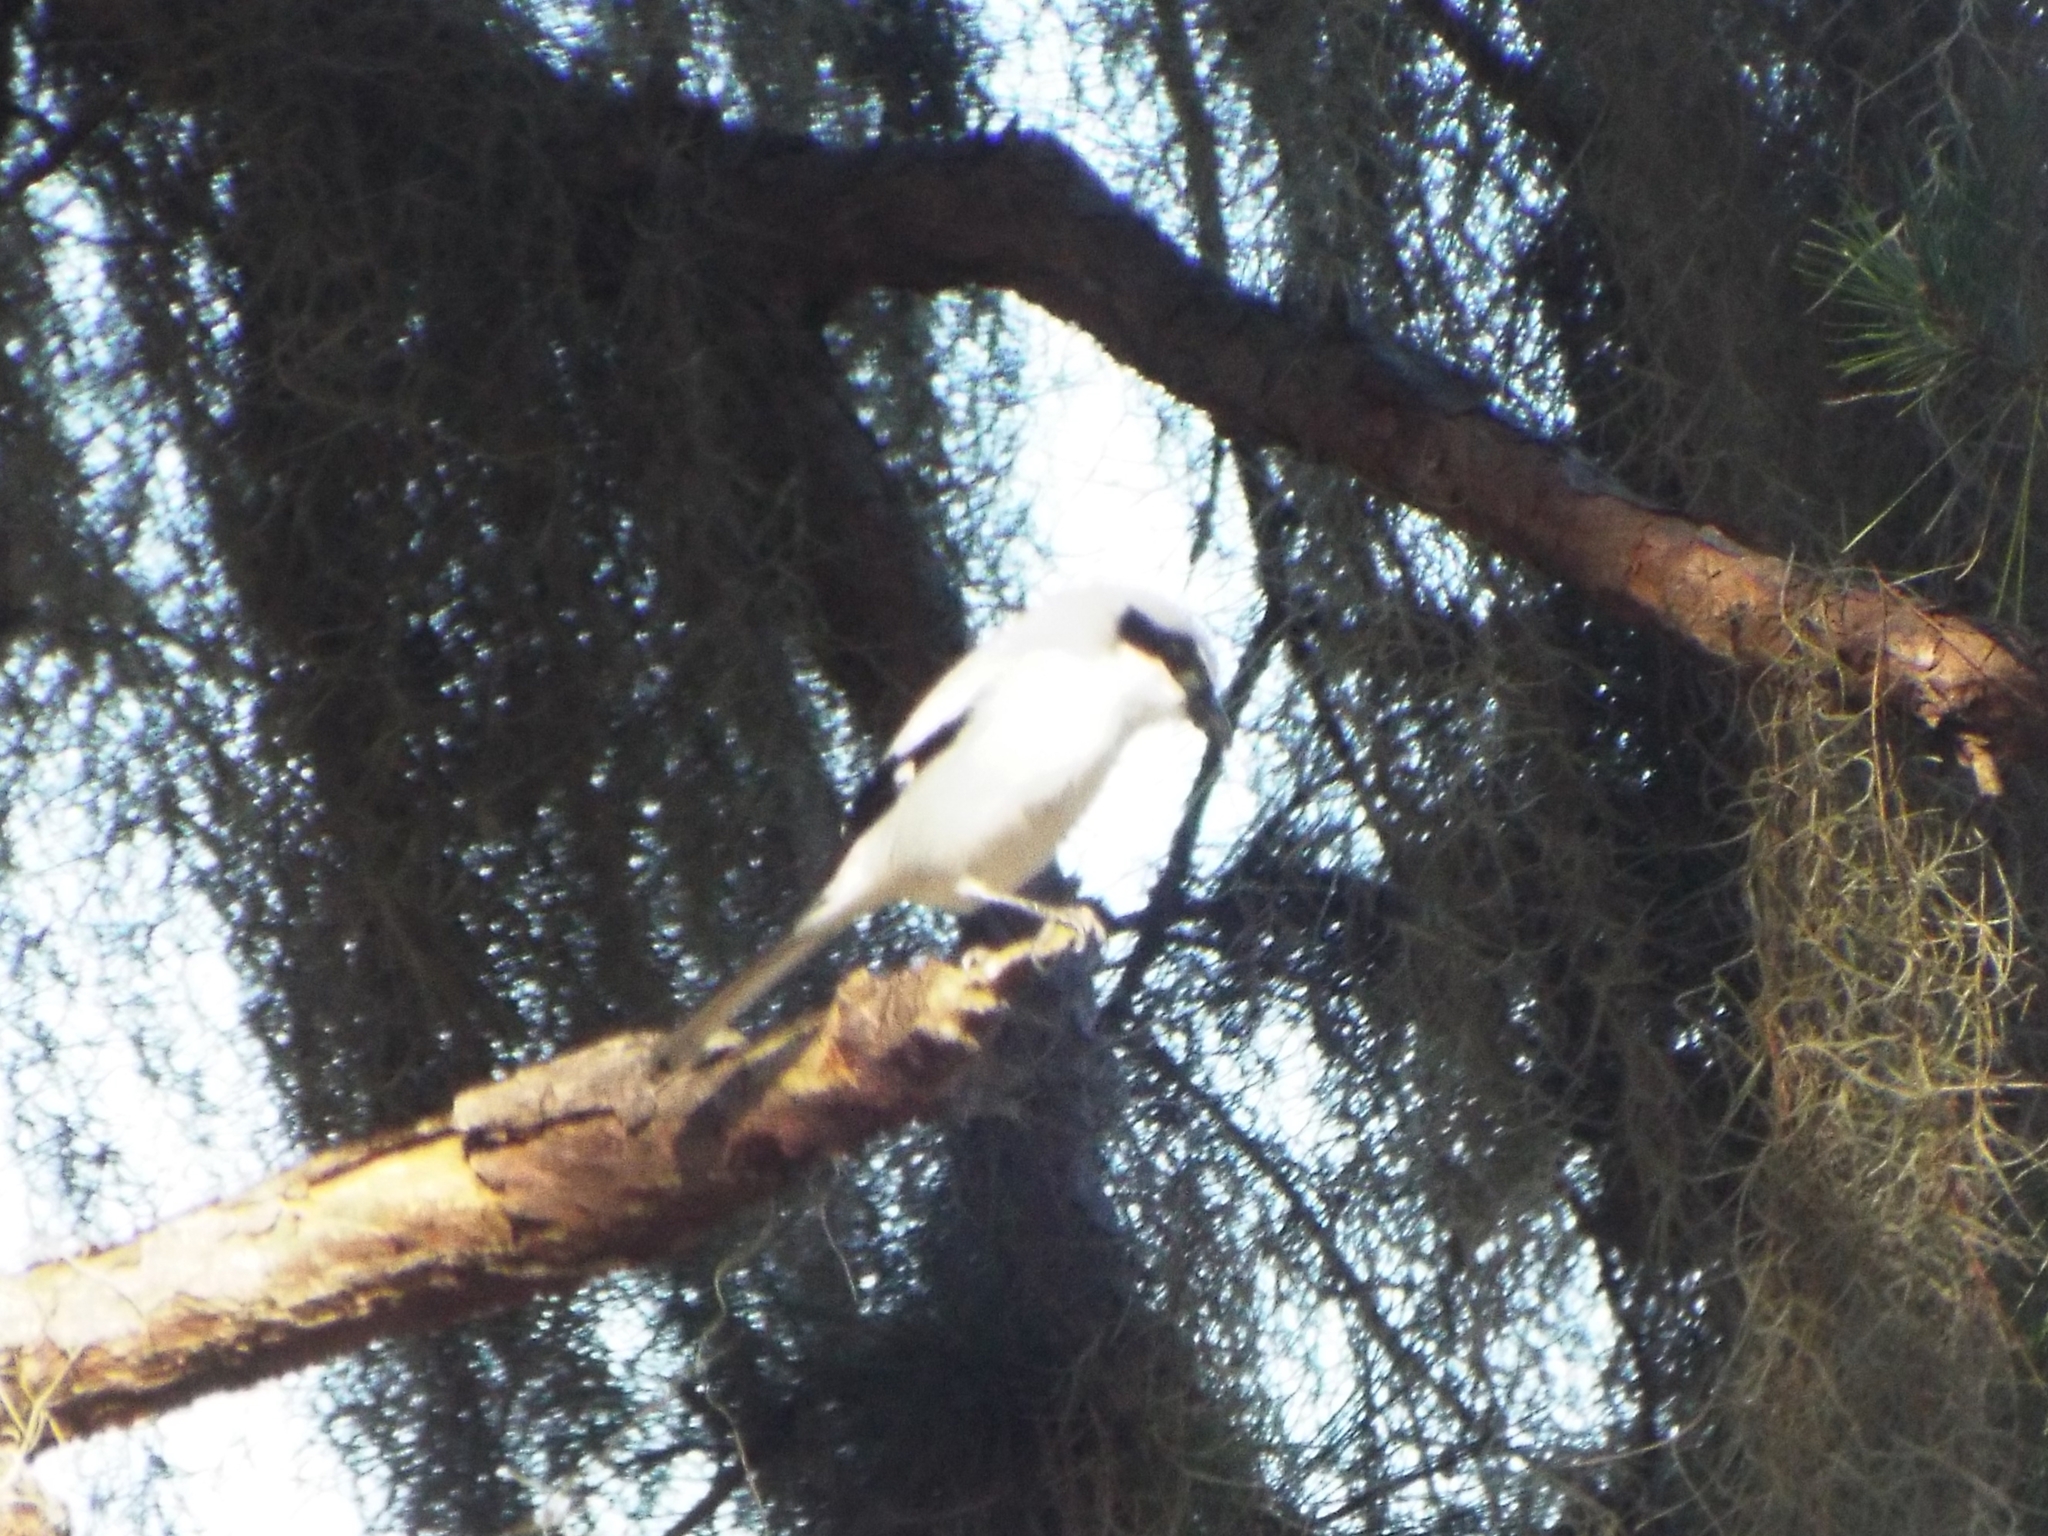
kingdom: Animalia
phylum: Chordata
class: Aves
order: Passeriformes
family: Laniidae
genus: Lanius
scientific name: Lanius ludovicianus
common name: Loggerhead shrike
